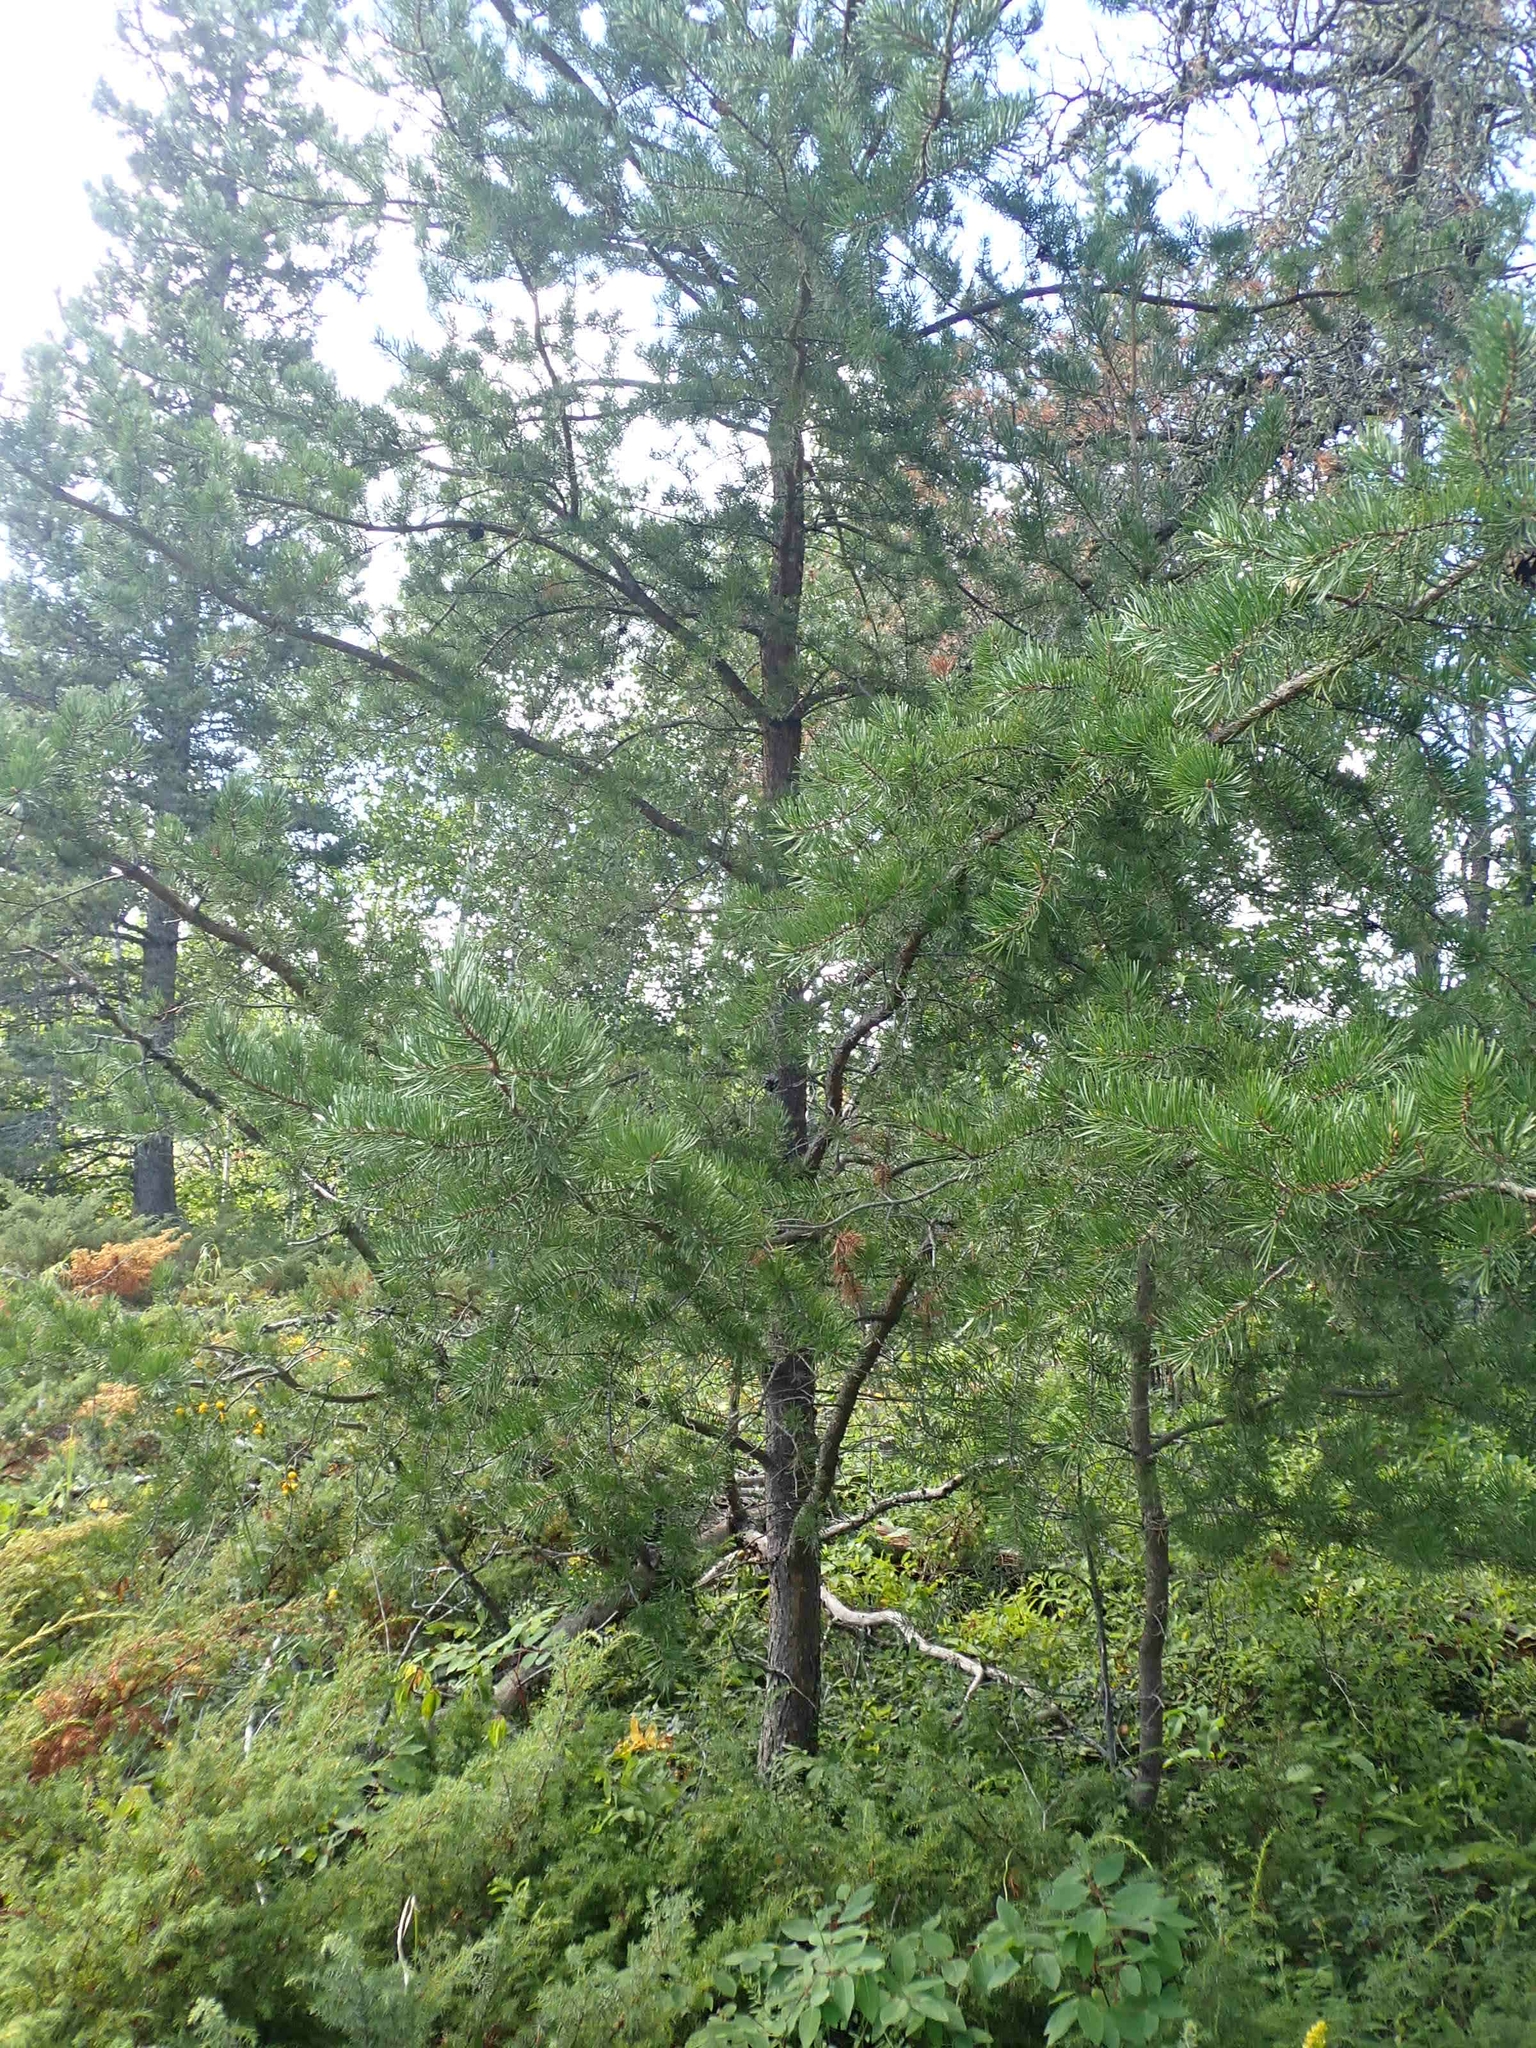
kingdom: Plantae
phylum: Tracheophyta
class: Pinopsida
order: Pinales
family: Pinaceae
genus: Pinus
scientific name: Pinus banksiana
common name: Jack pine
